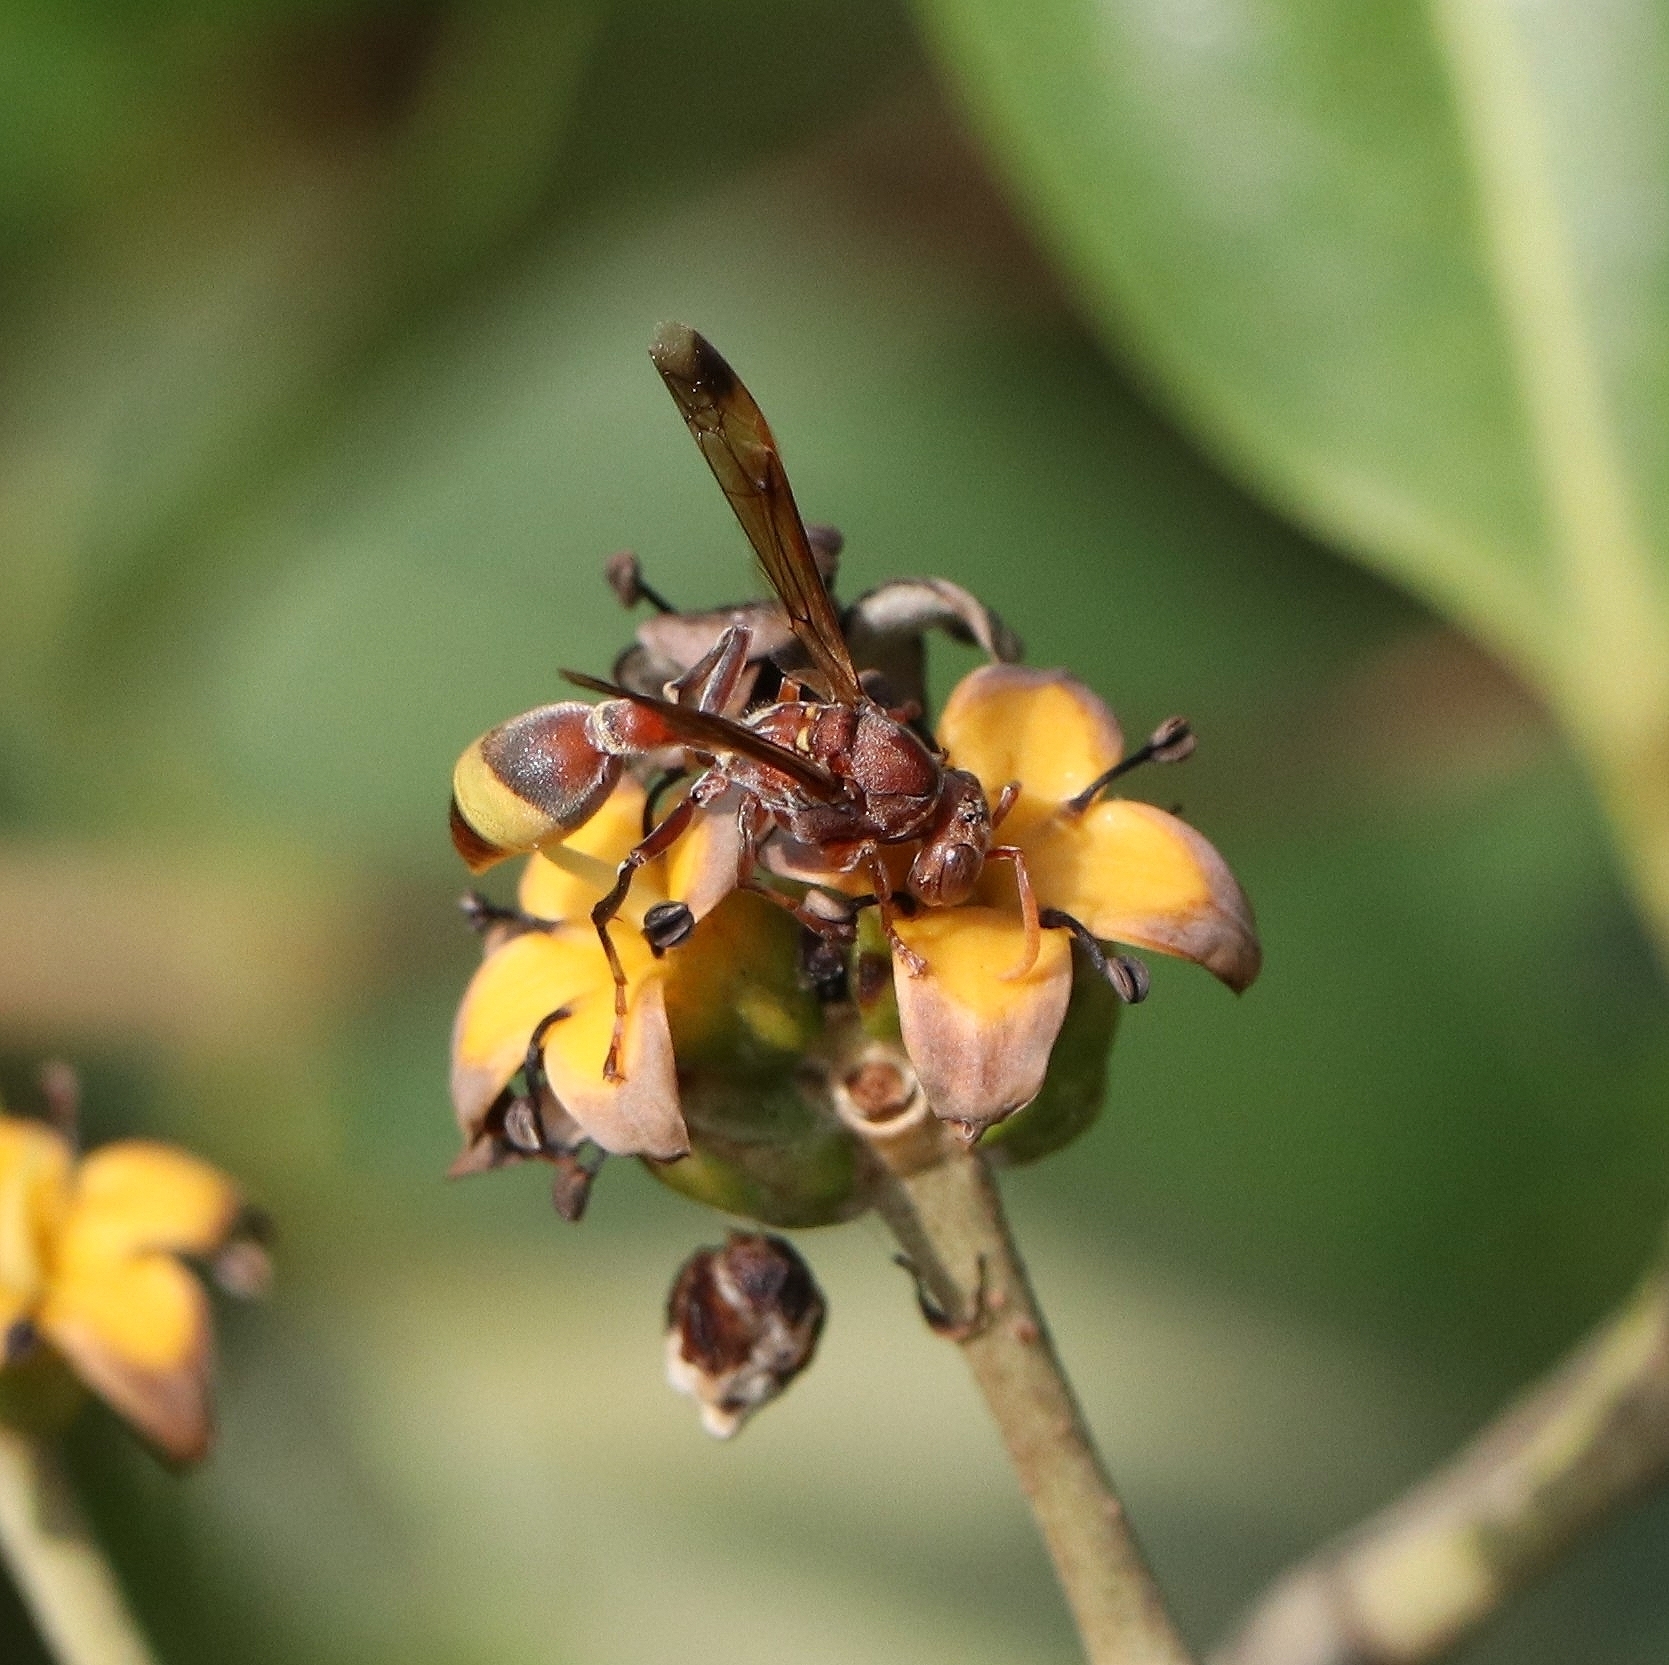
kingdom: Animalia
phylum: Arthropoda
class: Insecta
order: Hymenoptera
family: Vespidae
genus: Ropalidia
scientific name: Ropalidia
